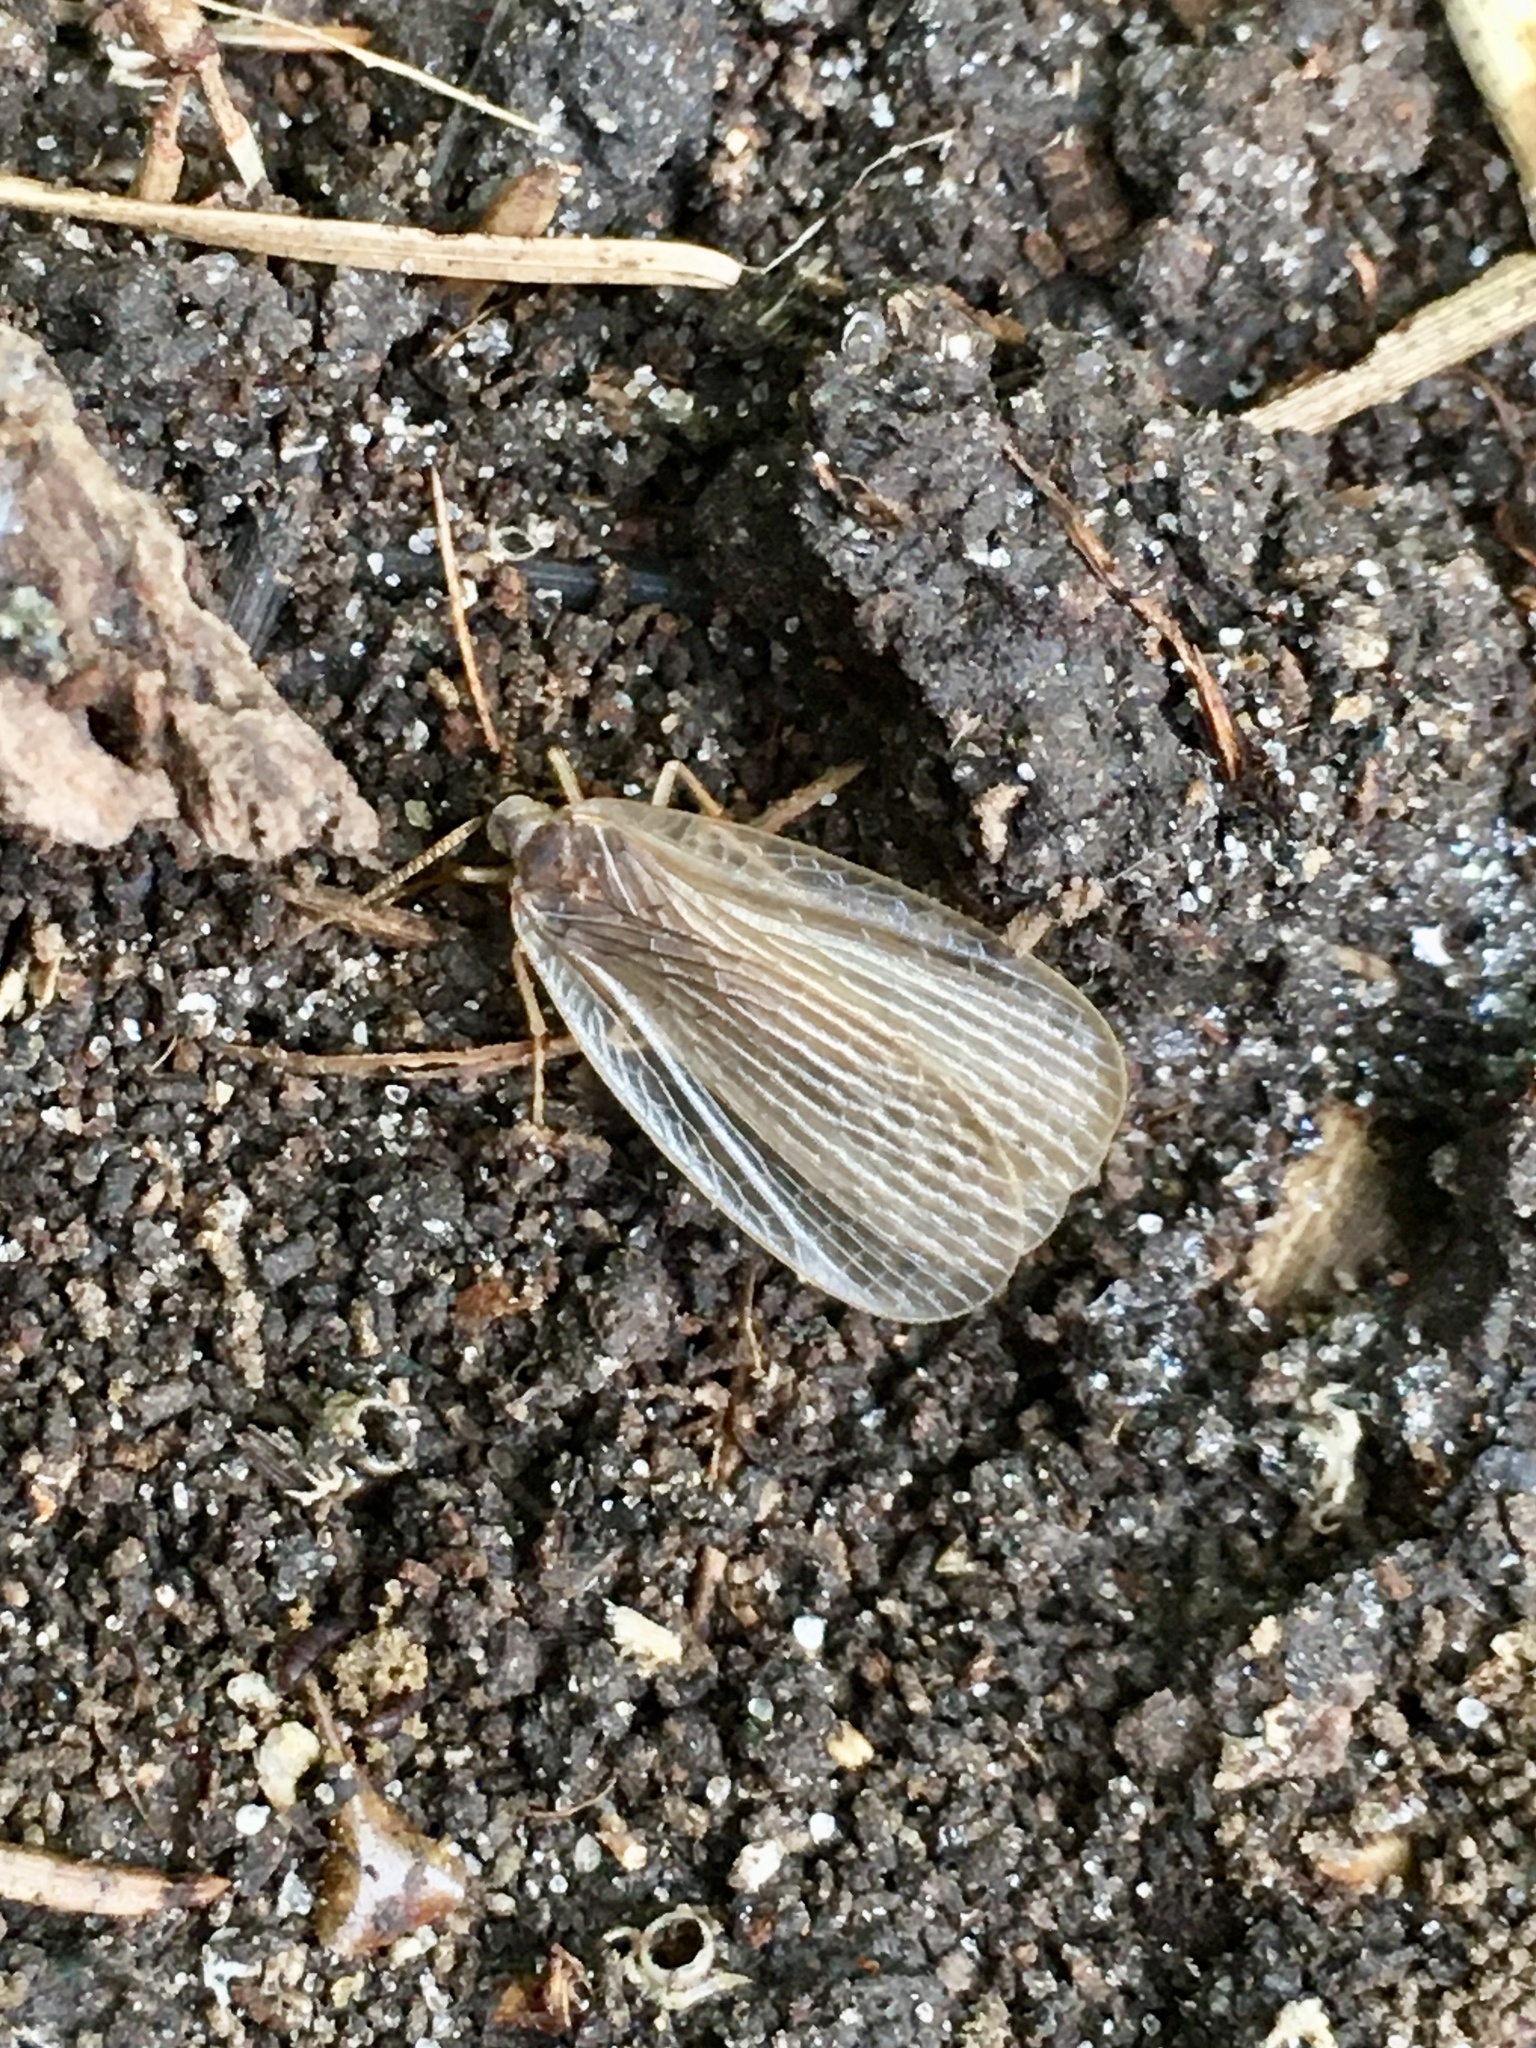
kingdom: Animalia
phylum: Arthropoda
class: Insecta
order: Mecoptera
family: Meropeidae
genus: Merope
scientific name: Merope tuber
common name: Forcepfly
